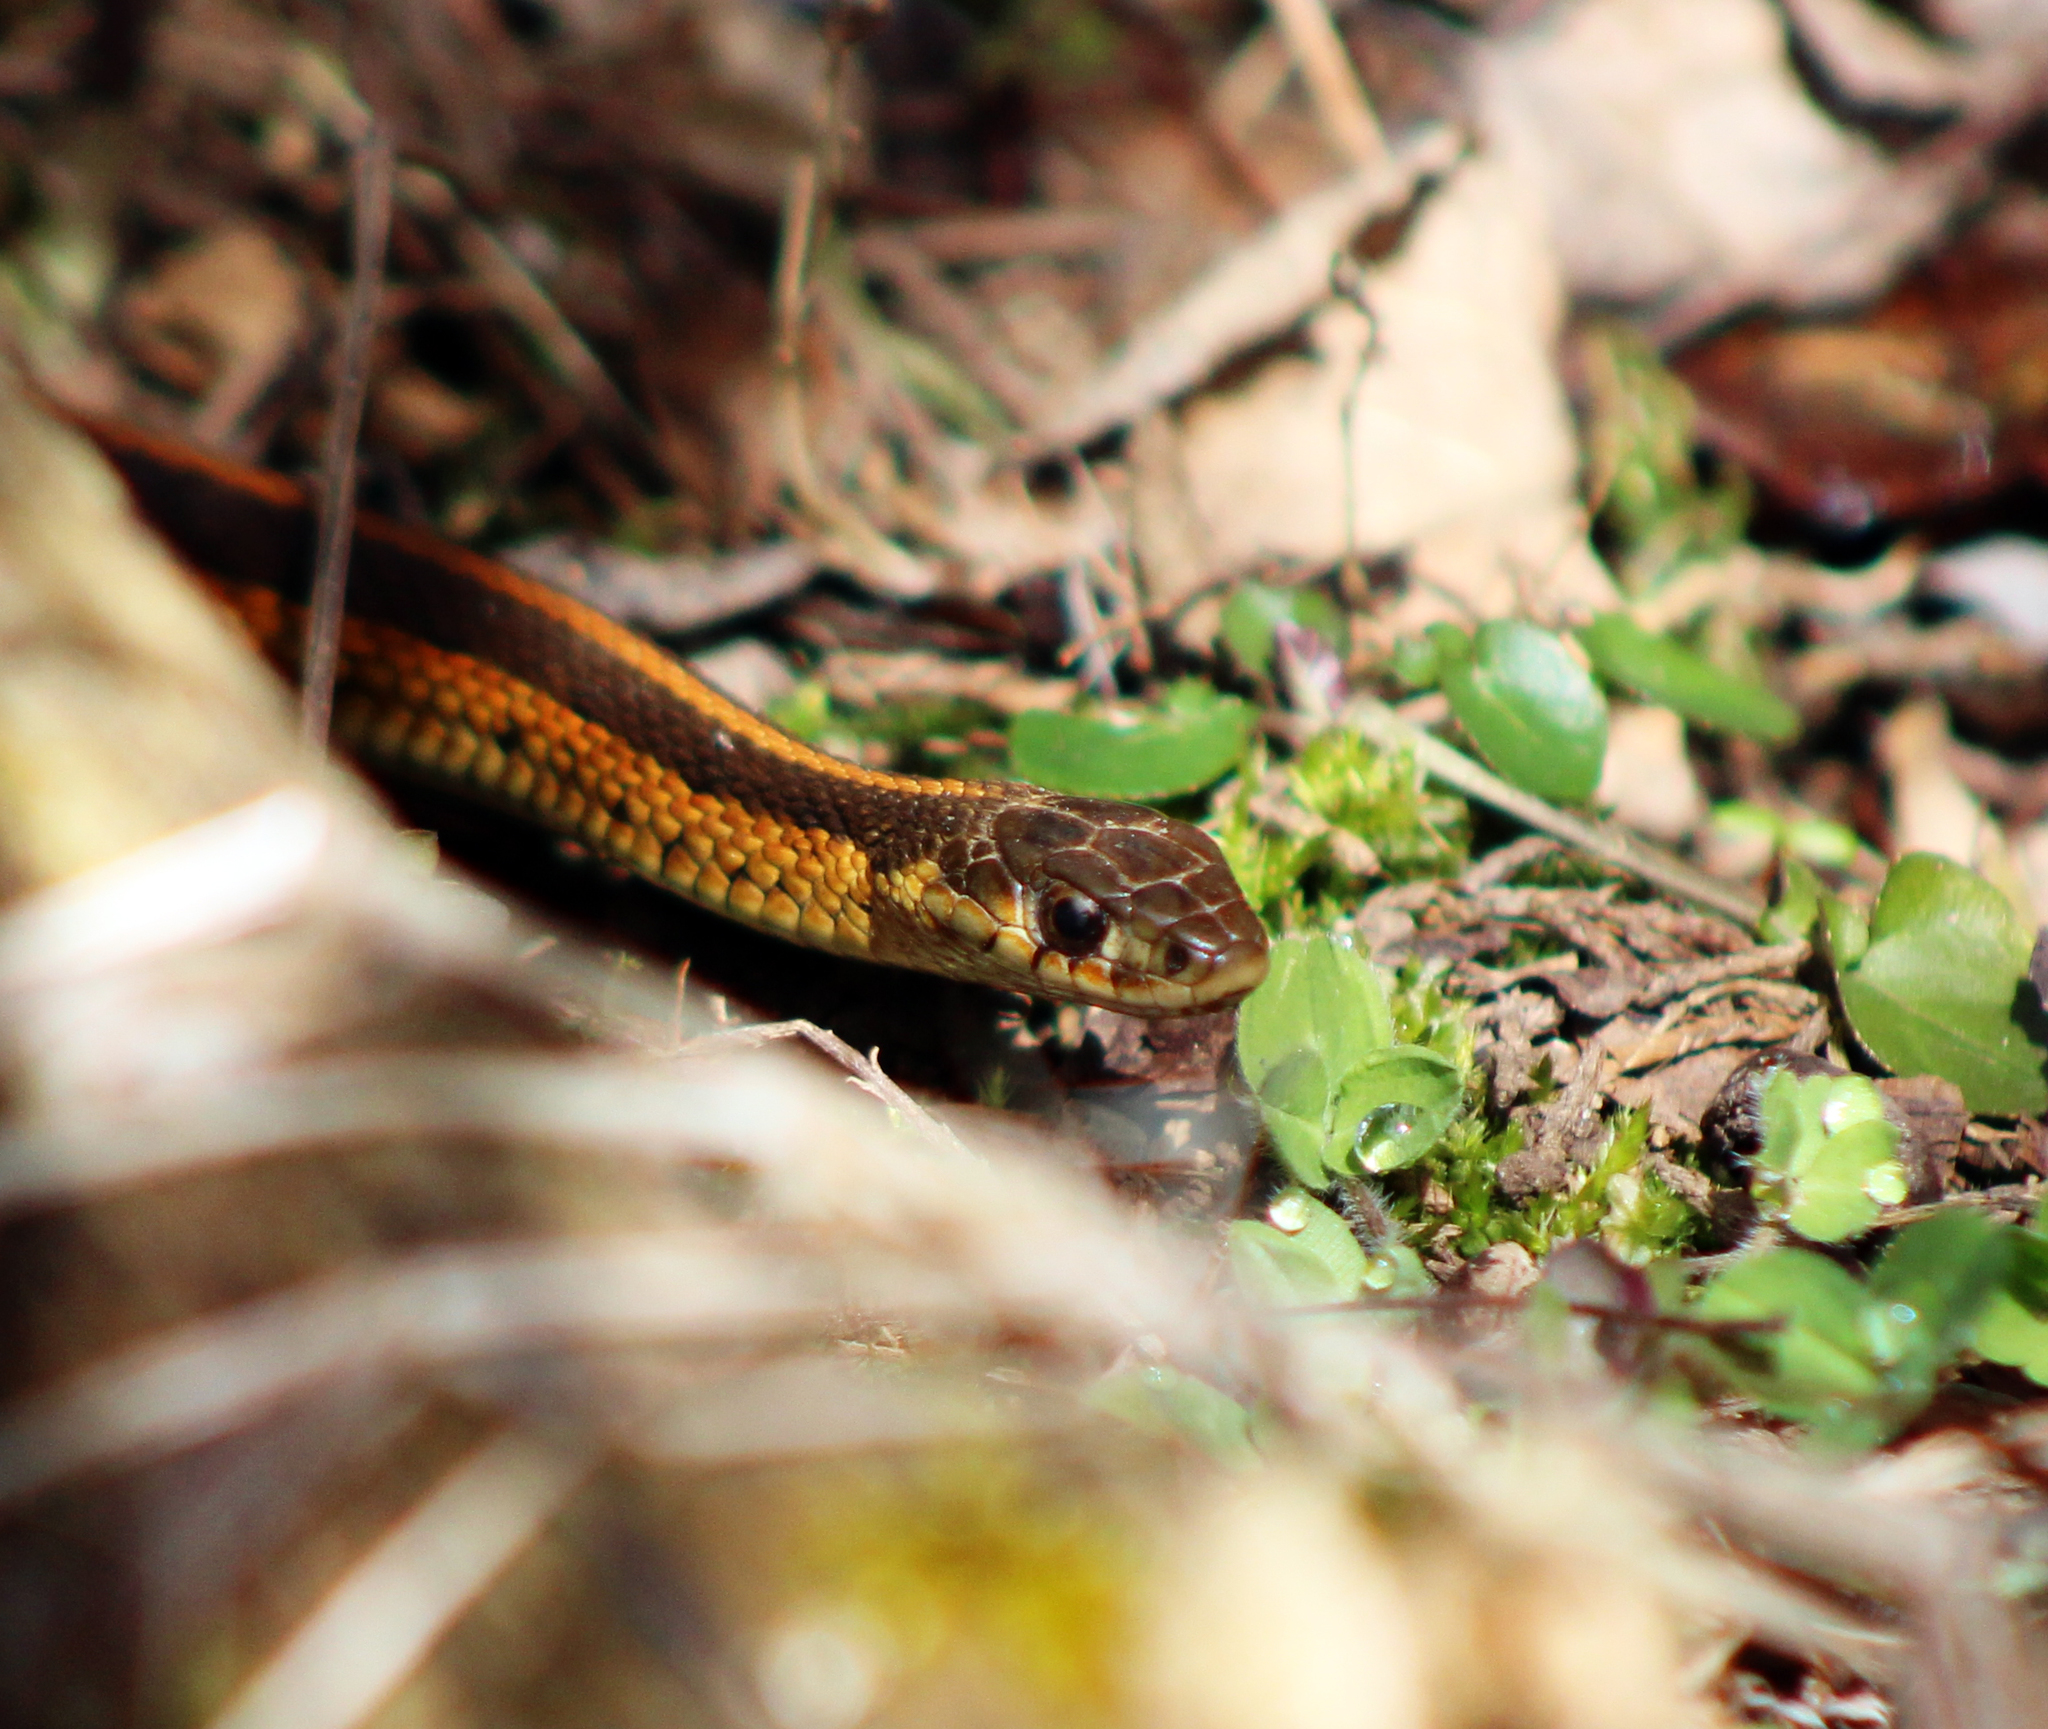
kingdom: Animalia
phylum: Chordata
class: Squamata
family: Colubridae
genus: Thamnophis
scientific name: Thamnophis sirtalis
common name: Common garter snake
